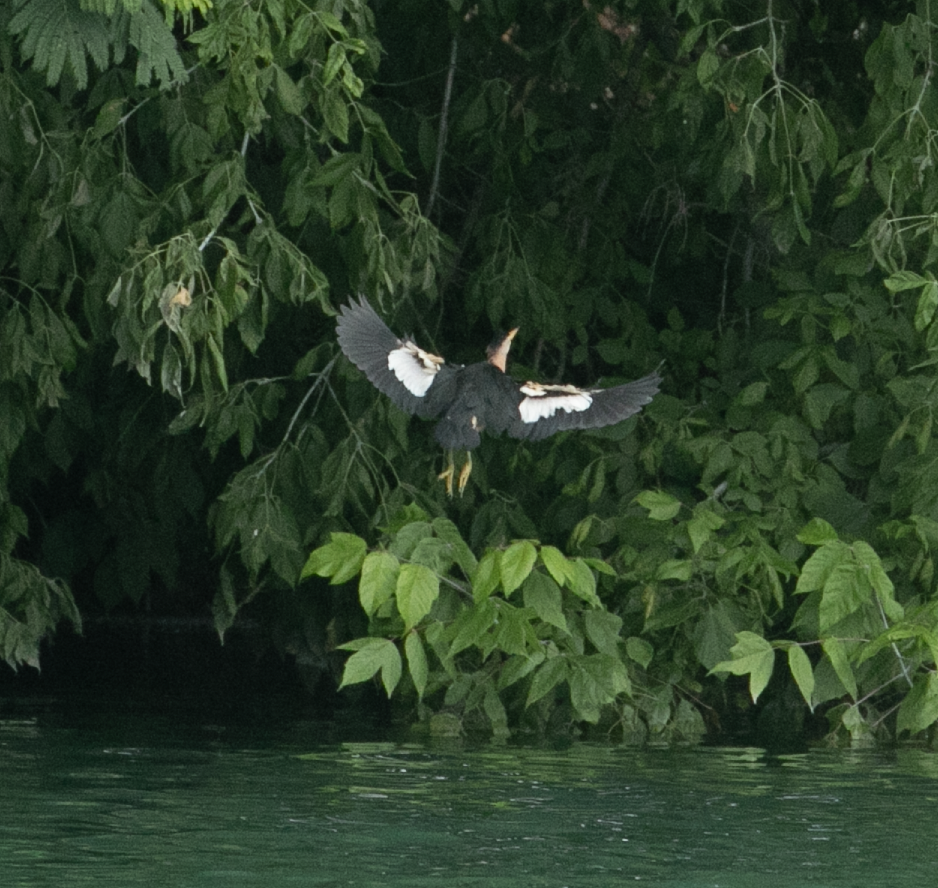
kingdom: Animalia
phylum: Chordata
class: Aves
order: Pelecaniformes
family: Ardeidae
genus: Ixobrychus
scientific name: Ixobrychus minutus
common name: Little bittern
